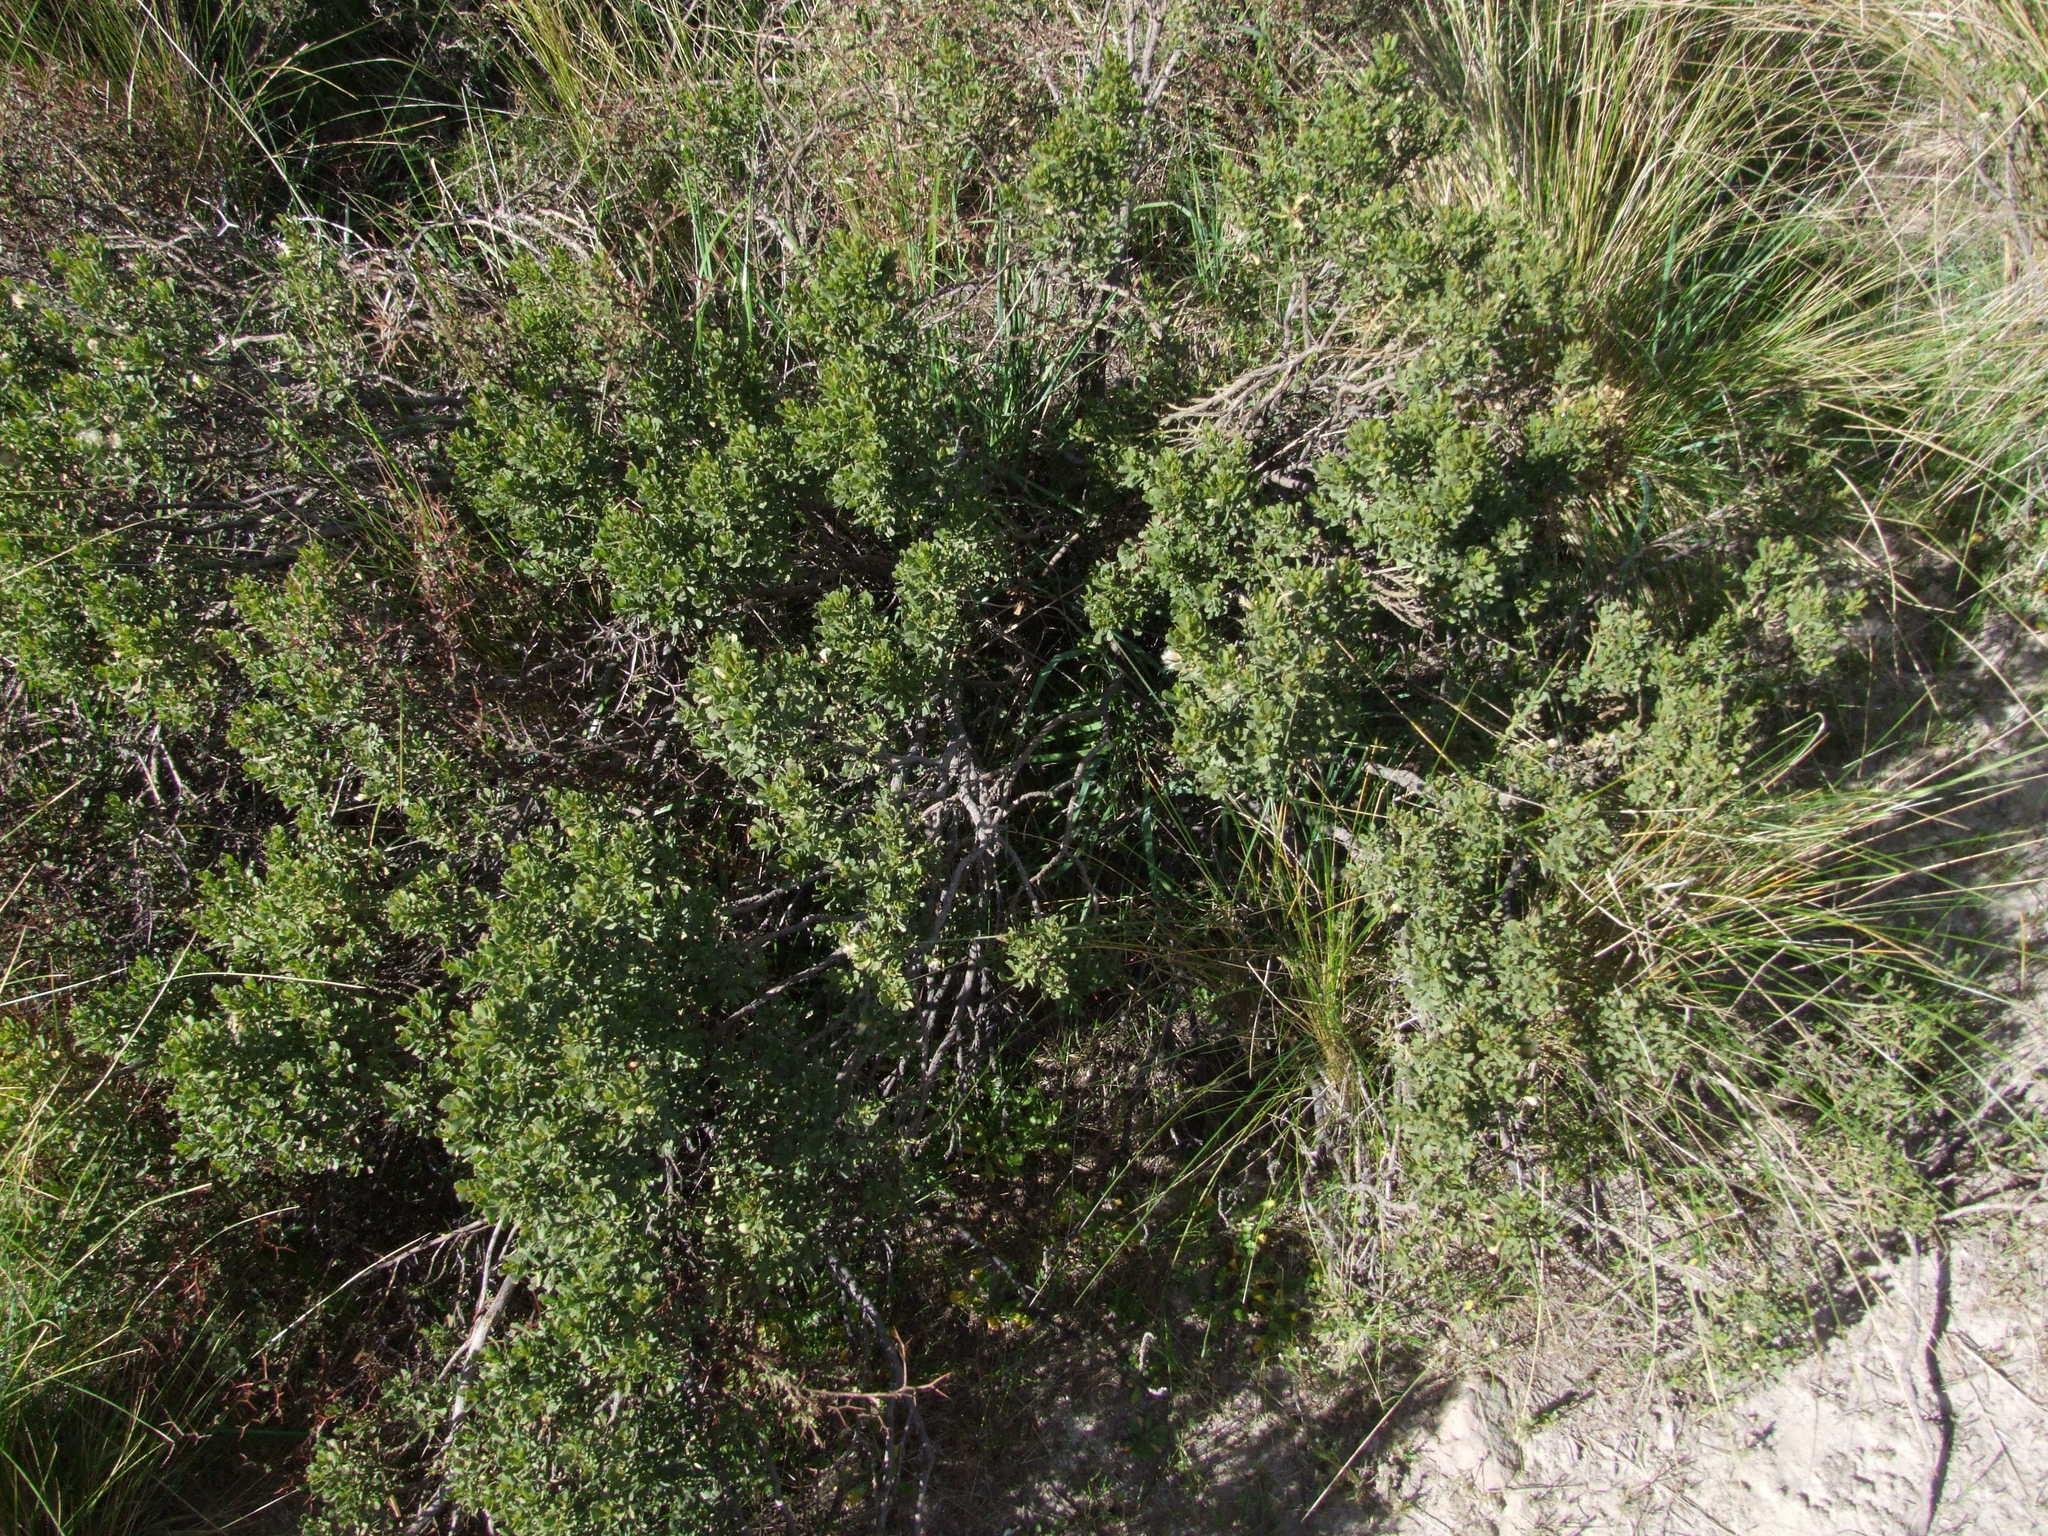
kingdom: Plantae
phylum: Tracheophyta
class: Magnoliopsida
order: Asterales
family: Asteraceae
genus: Baccharis
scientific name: Baccharis tricuneata
